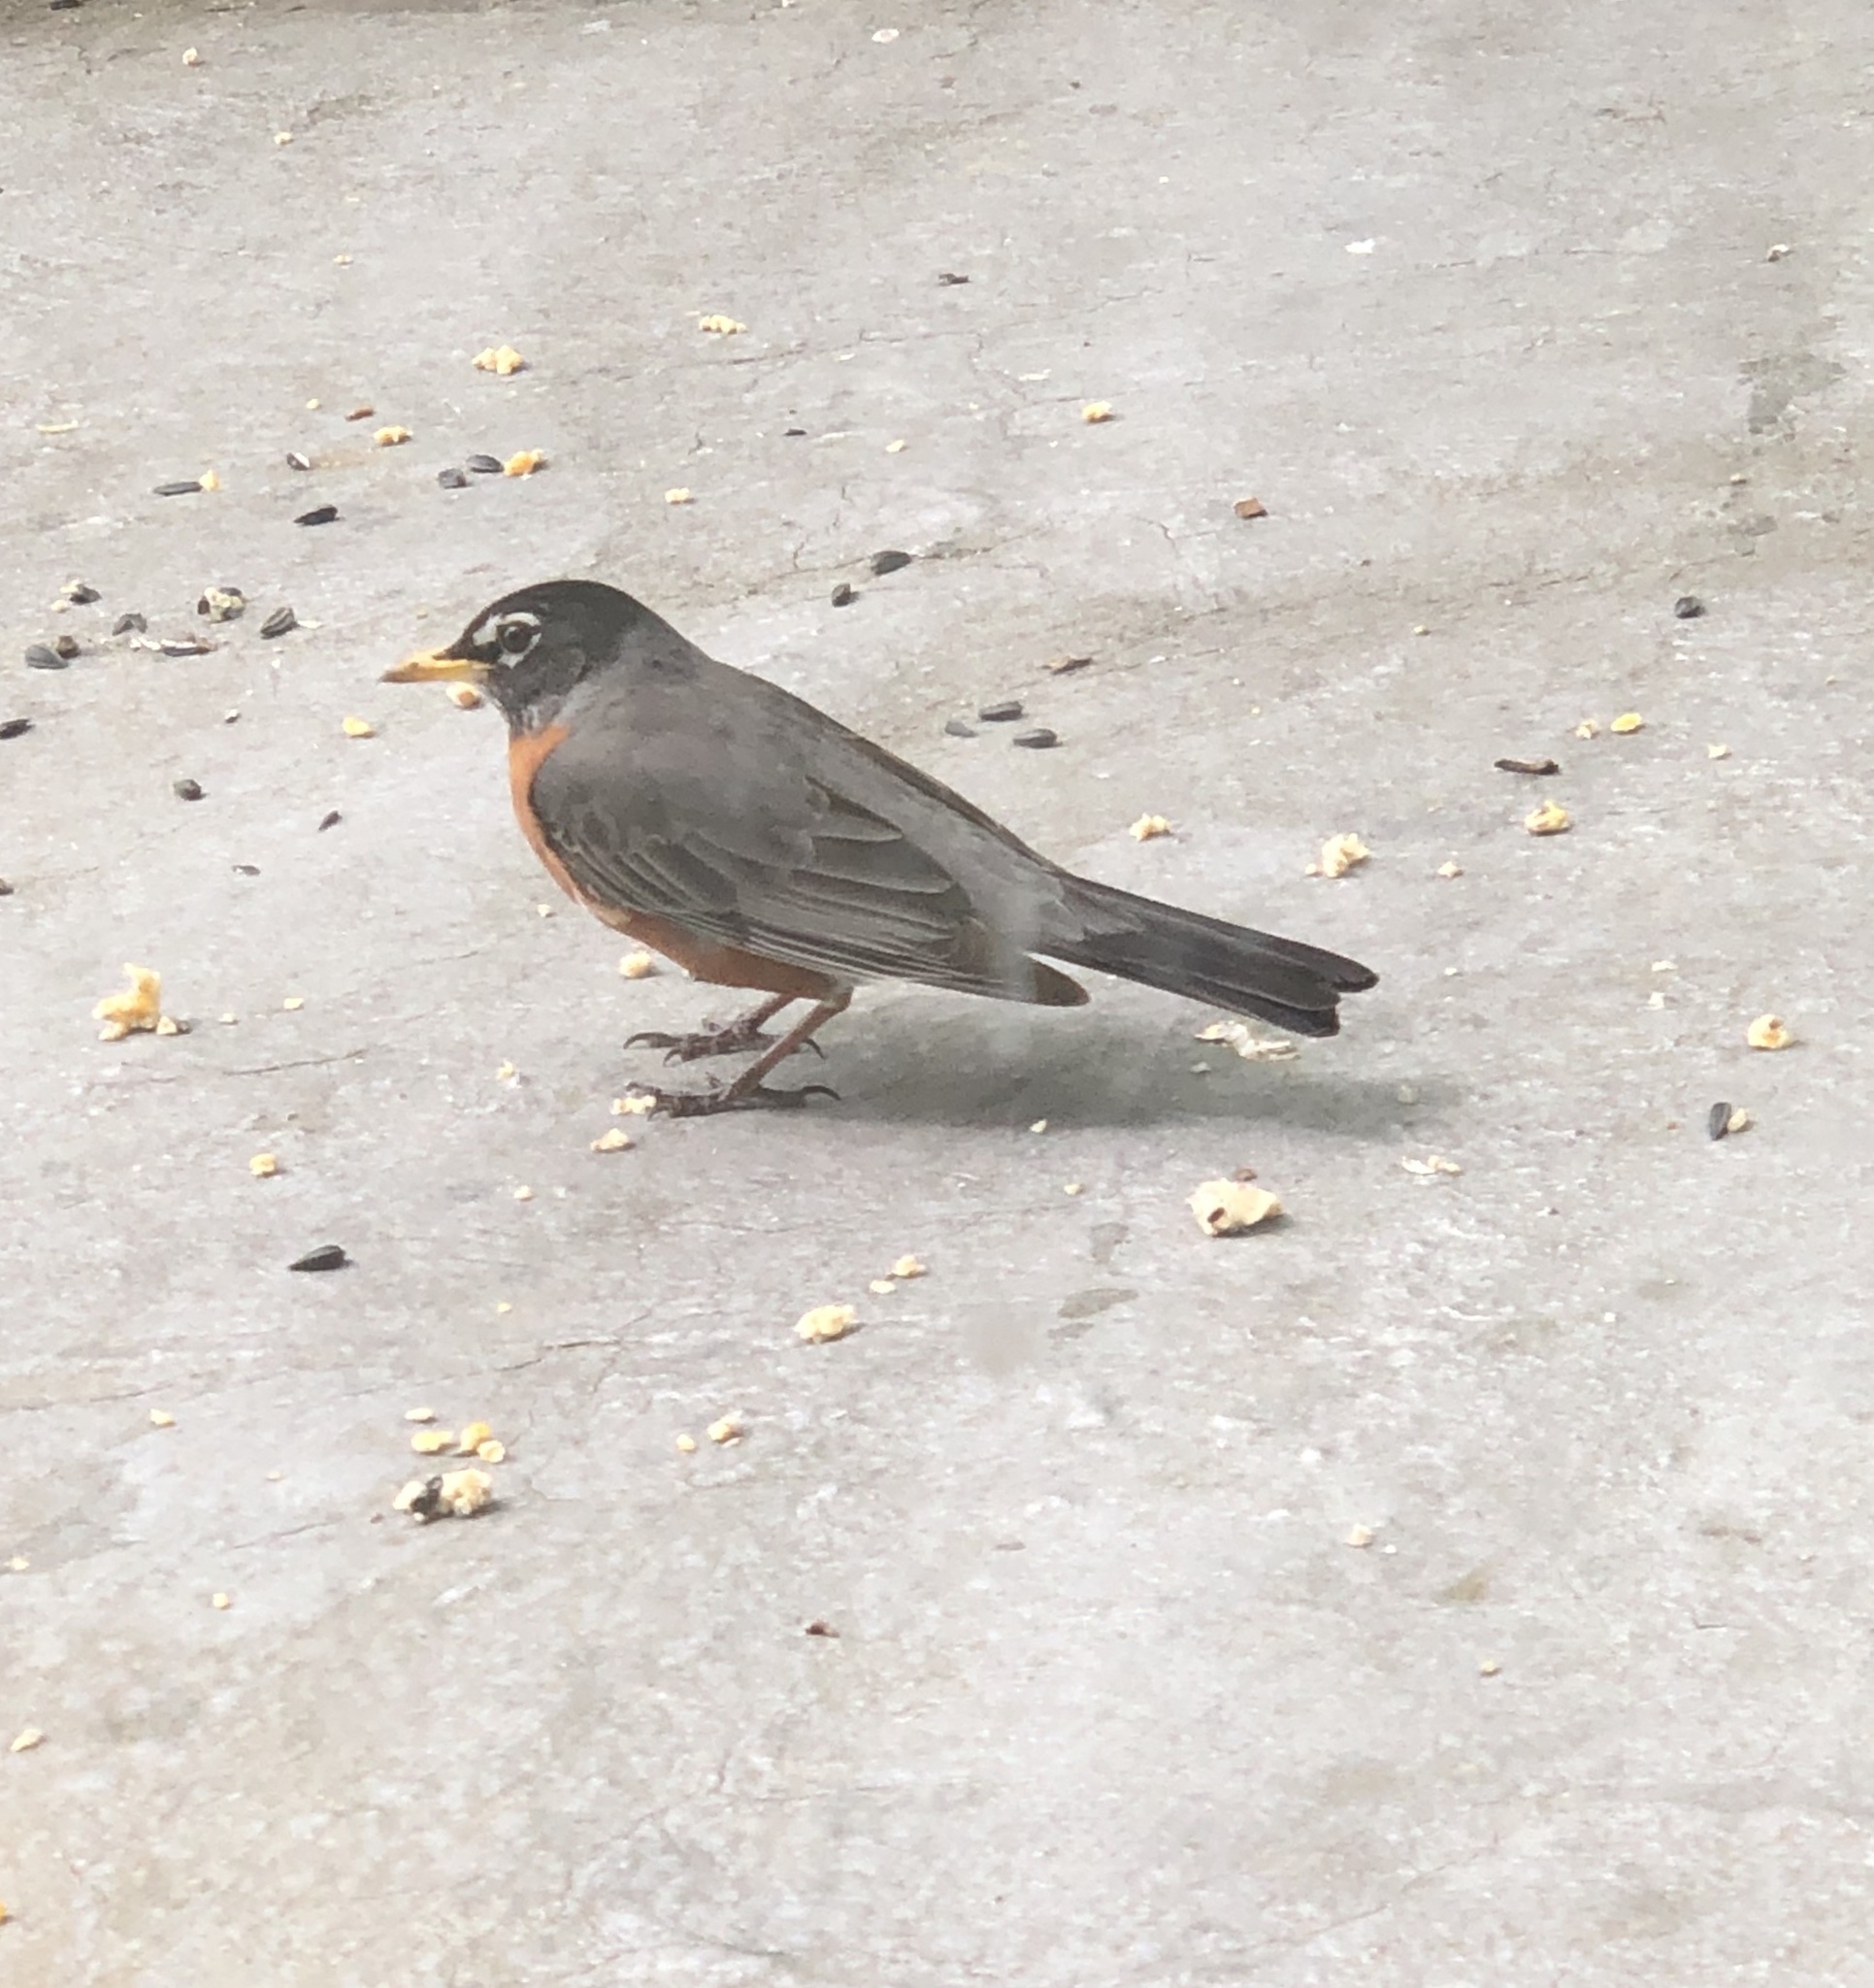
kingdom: Animalia
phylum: Chordata
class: Aves
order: Passeriformes
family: Turdidae
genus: Turdus
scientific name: Turdus migratorius
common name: American robin
